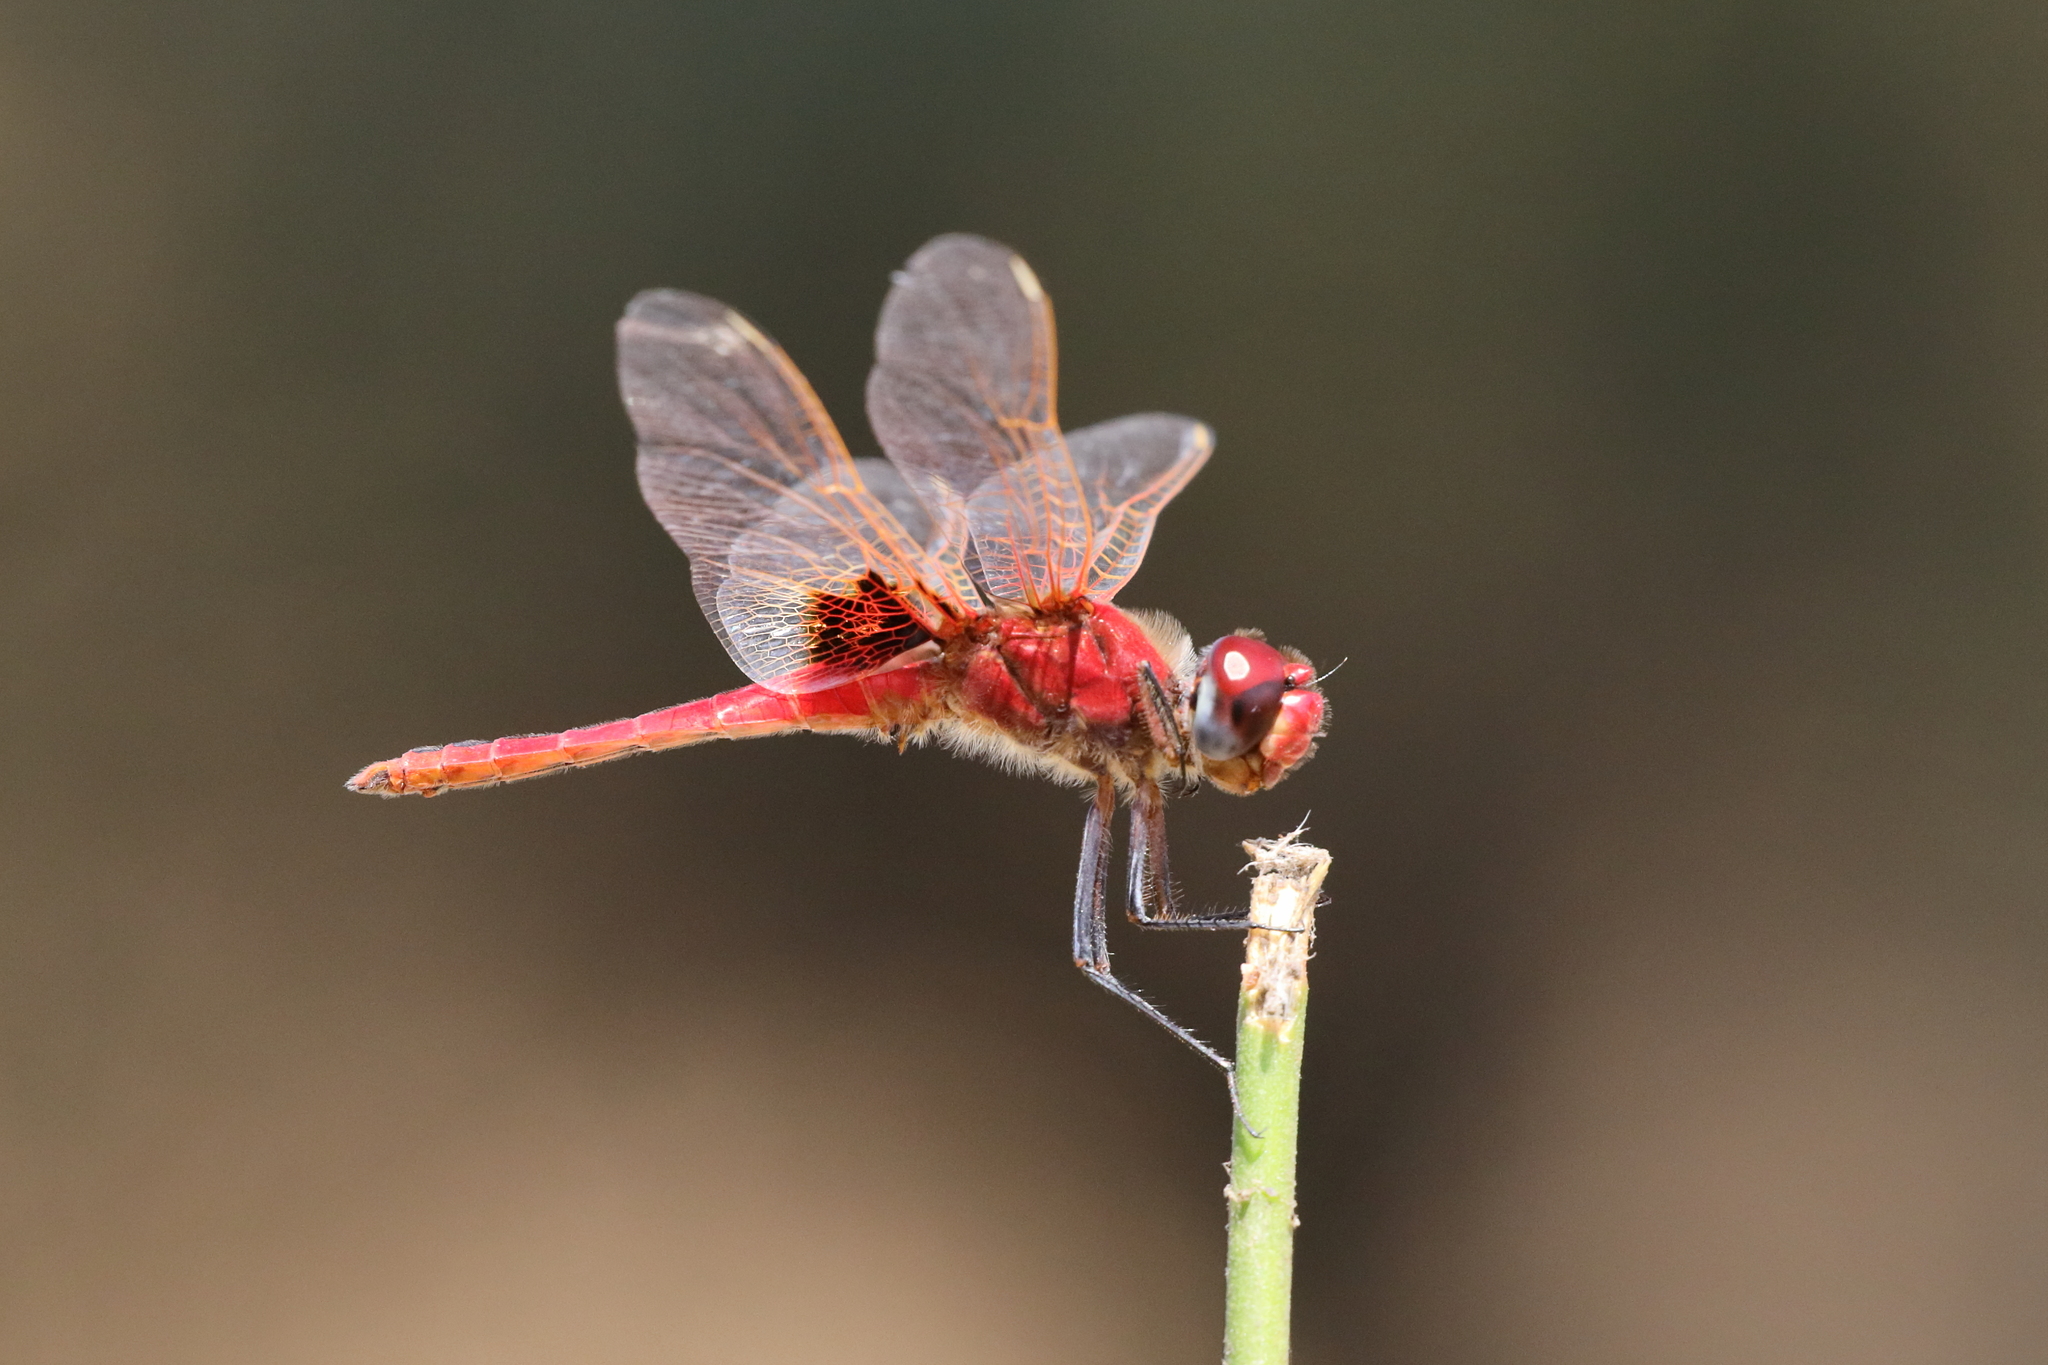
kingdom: Animalia
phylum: Arthropoda
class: Insecta
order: Odonata
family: Libellulidae
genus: Urothemis
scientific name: Urothemis assignata
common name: Red basker
